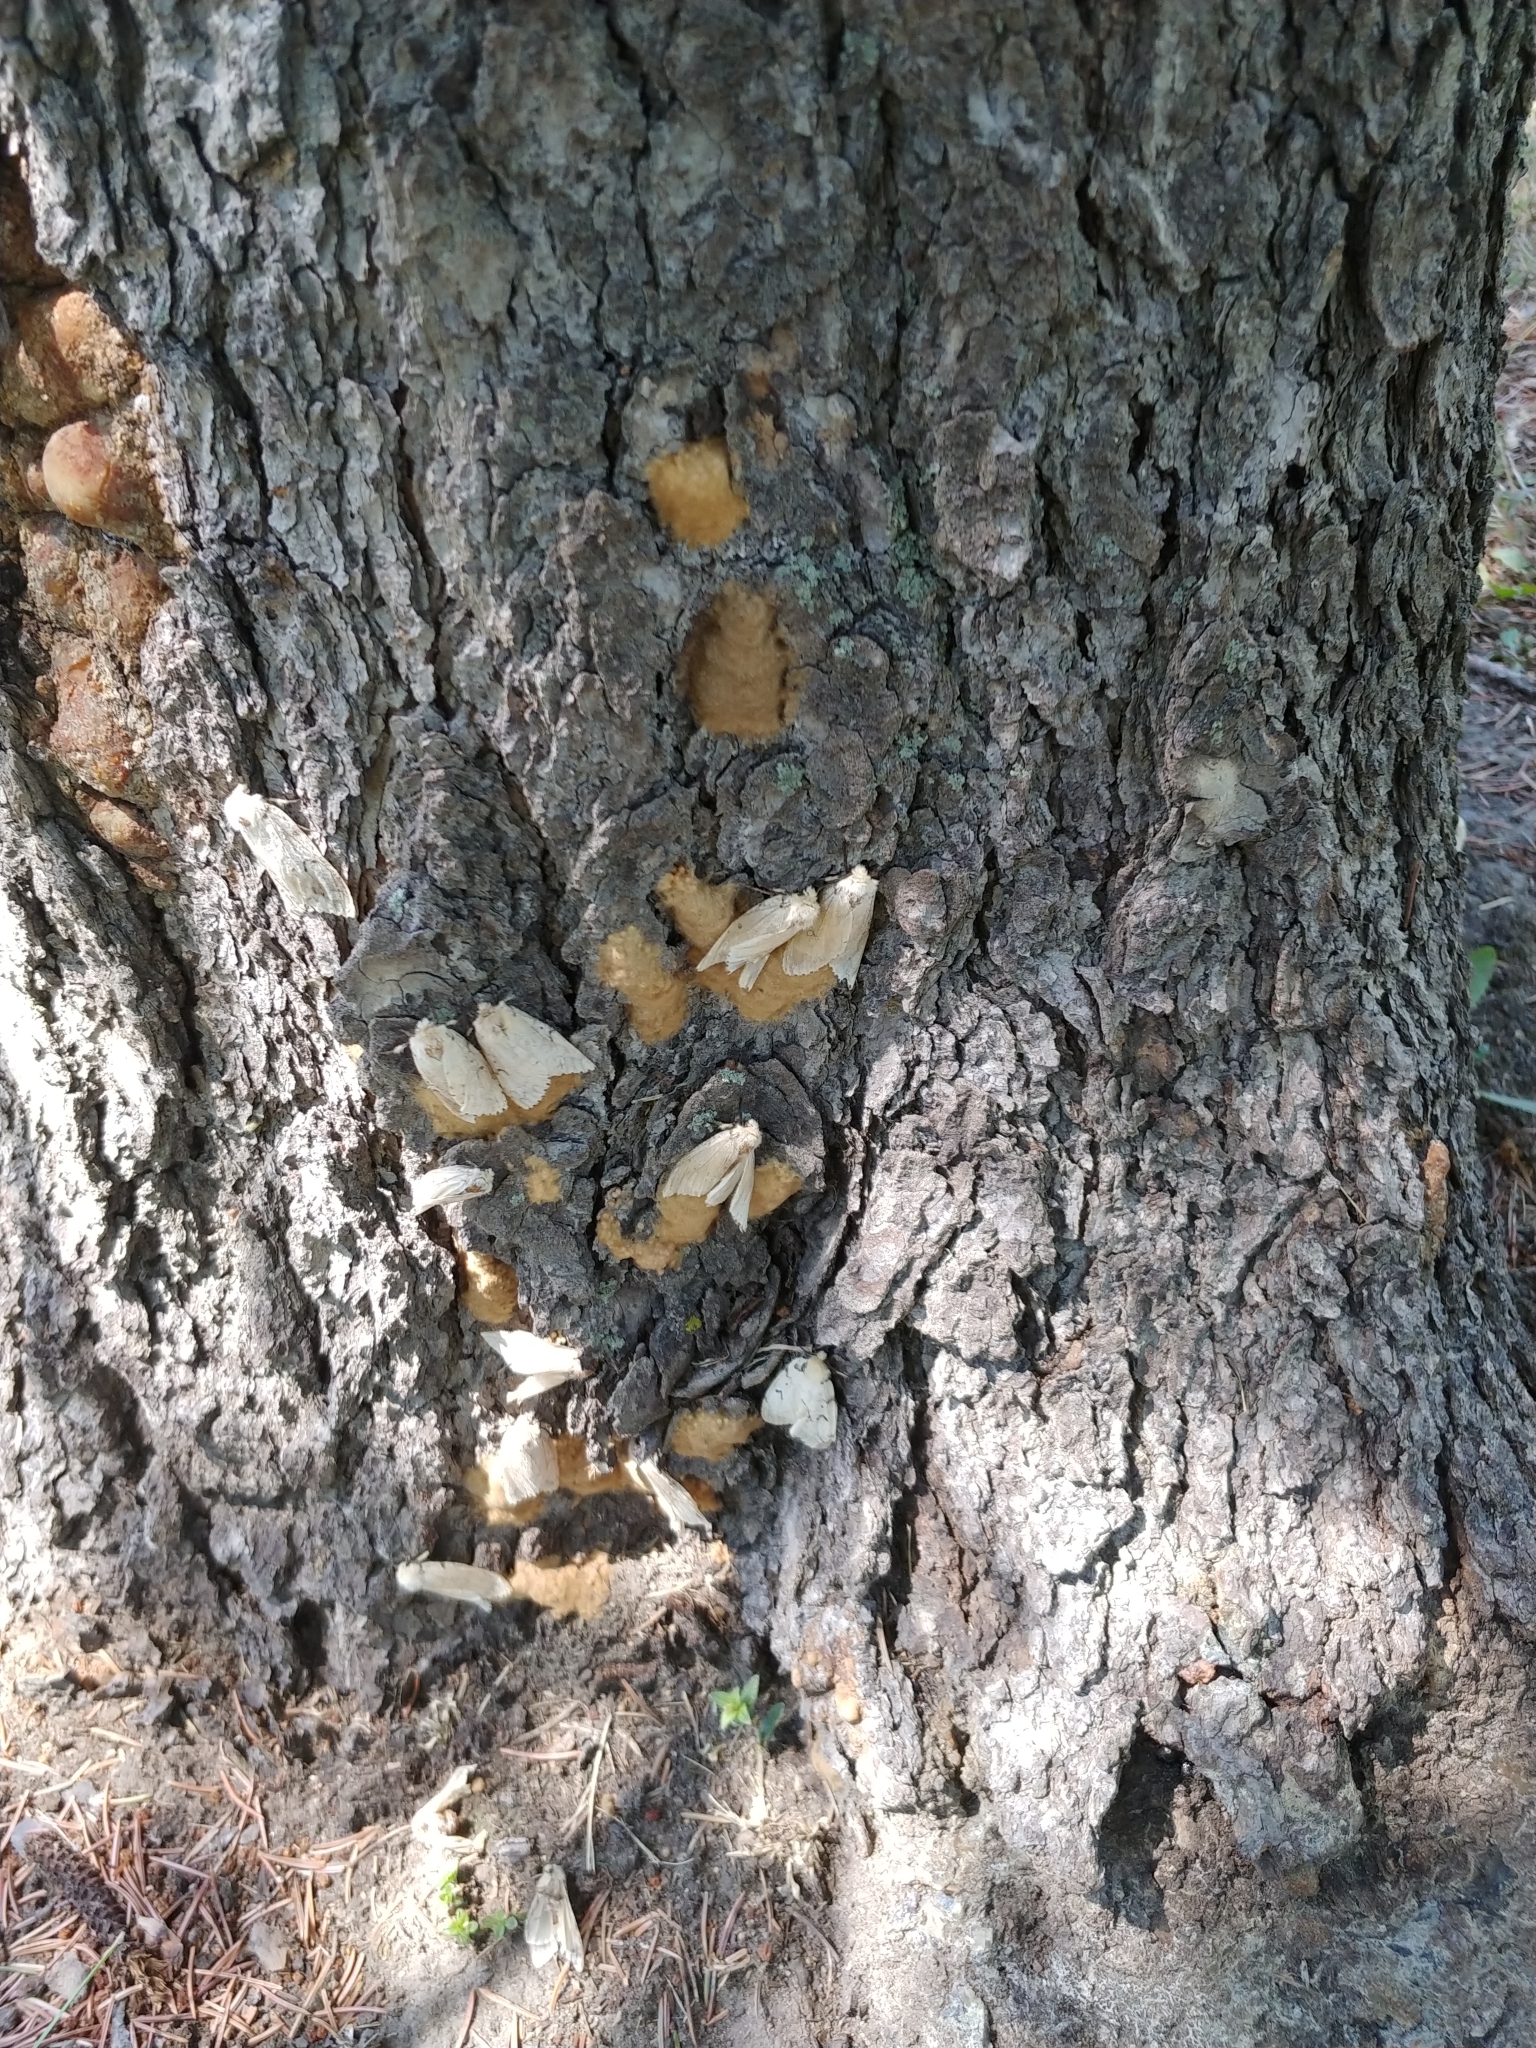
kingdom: Animalia
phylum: Arthropoda
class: Insecta
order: Lepidoptera
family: Erebidae
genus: Lymantria
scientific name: Lymantria dispar
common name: Gypsy moth
